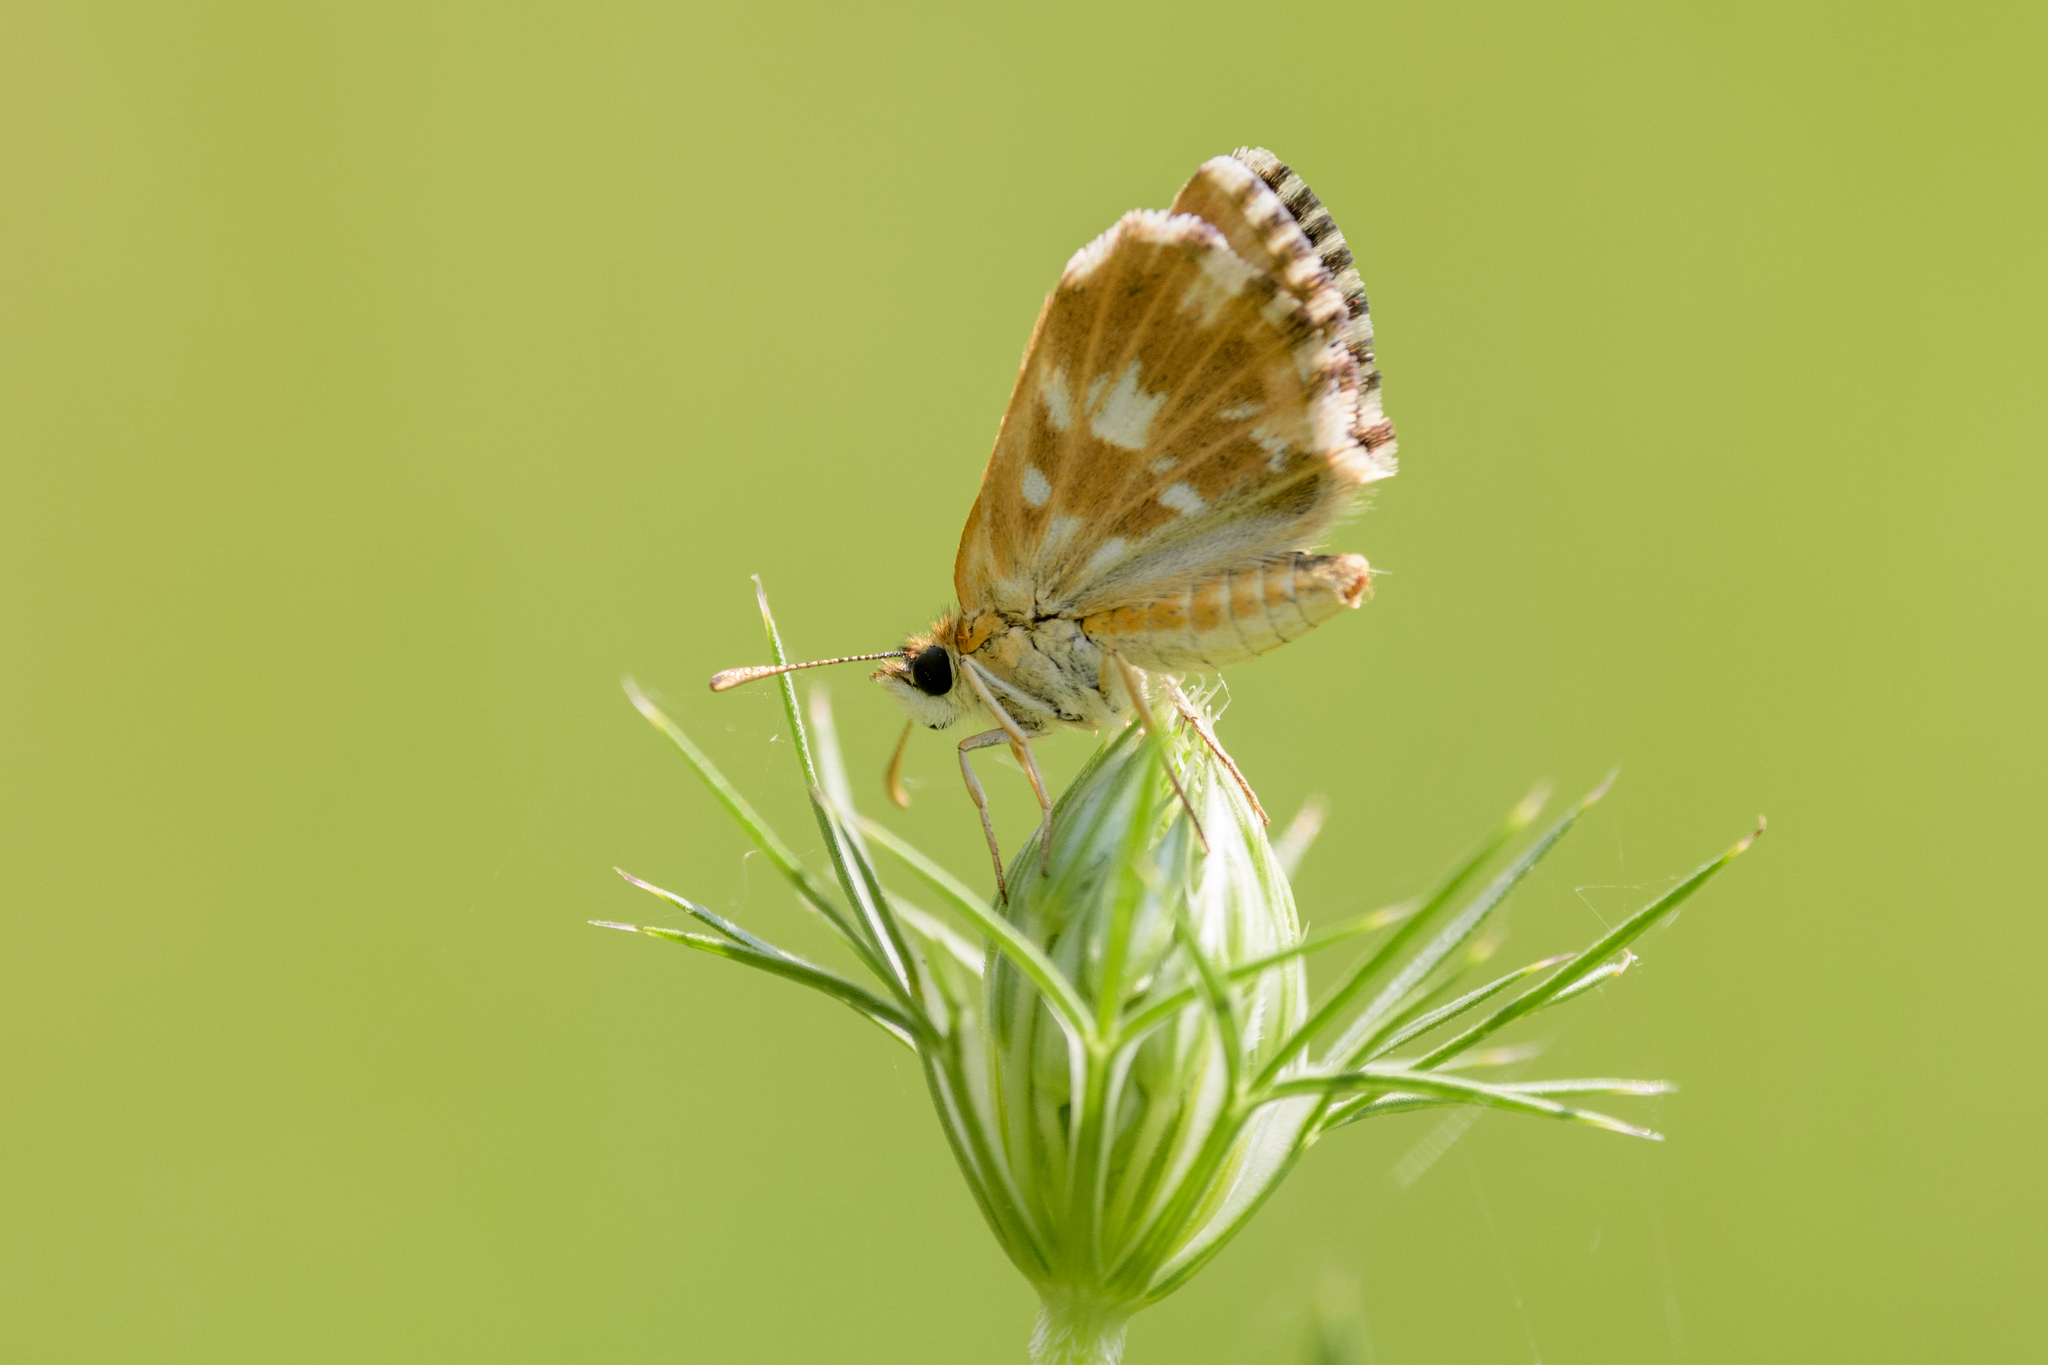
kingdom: Animalia
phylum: Arthropoda
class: Insecta
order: Lepidoptera
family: Hesperiidae
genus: Pyrgus
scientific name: Pyrgus malvoides
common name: Southern grizzled skipper
